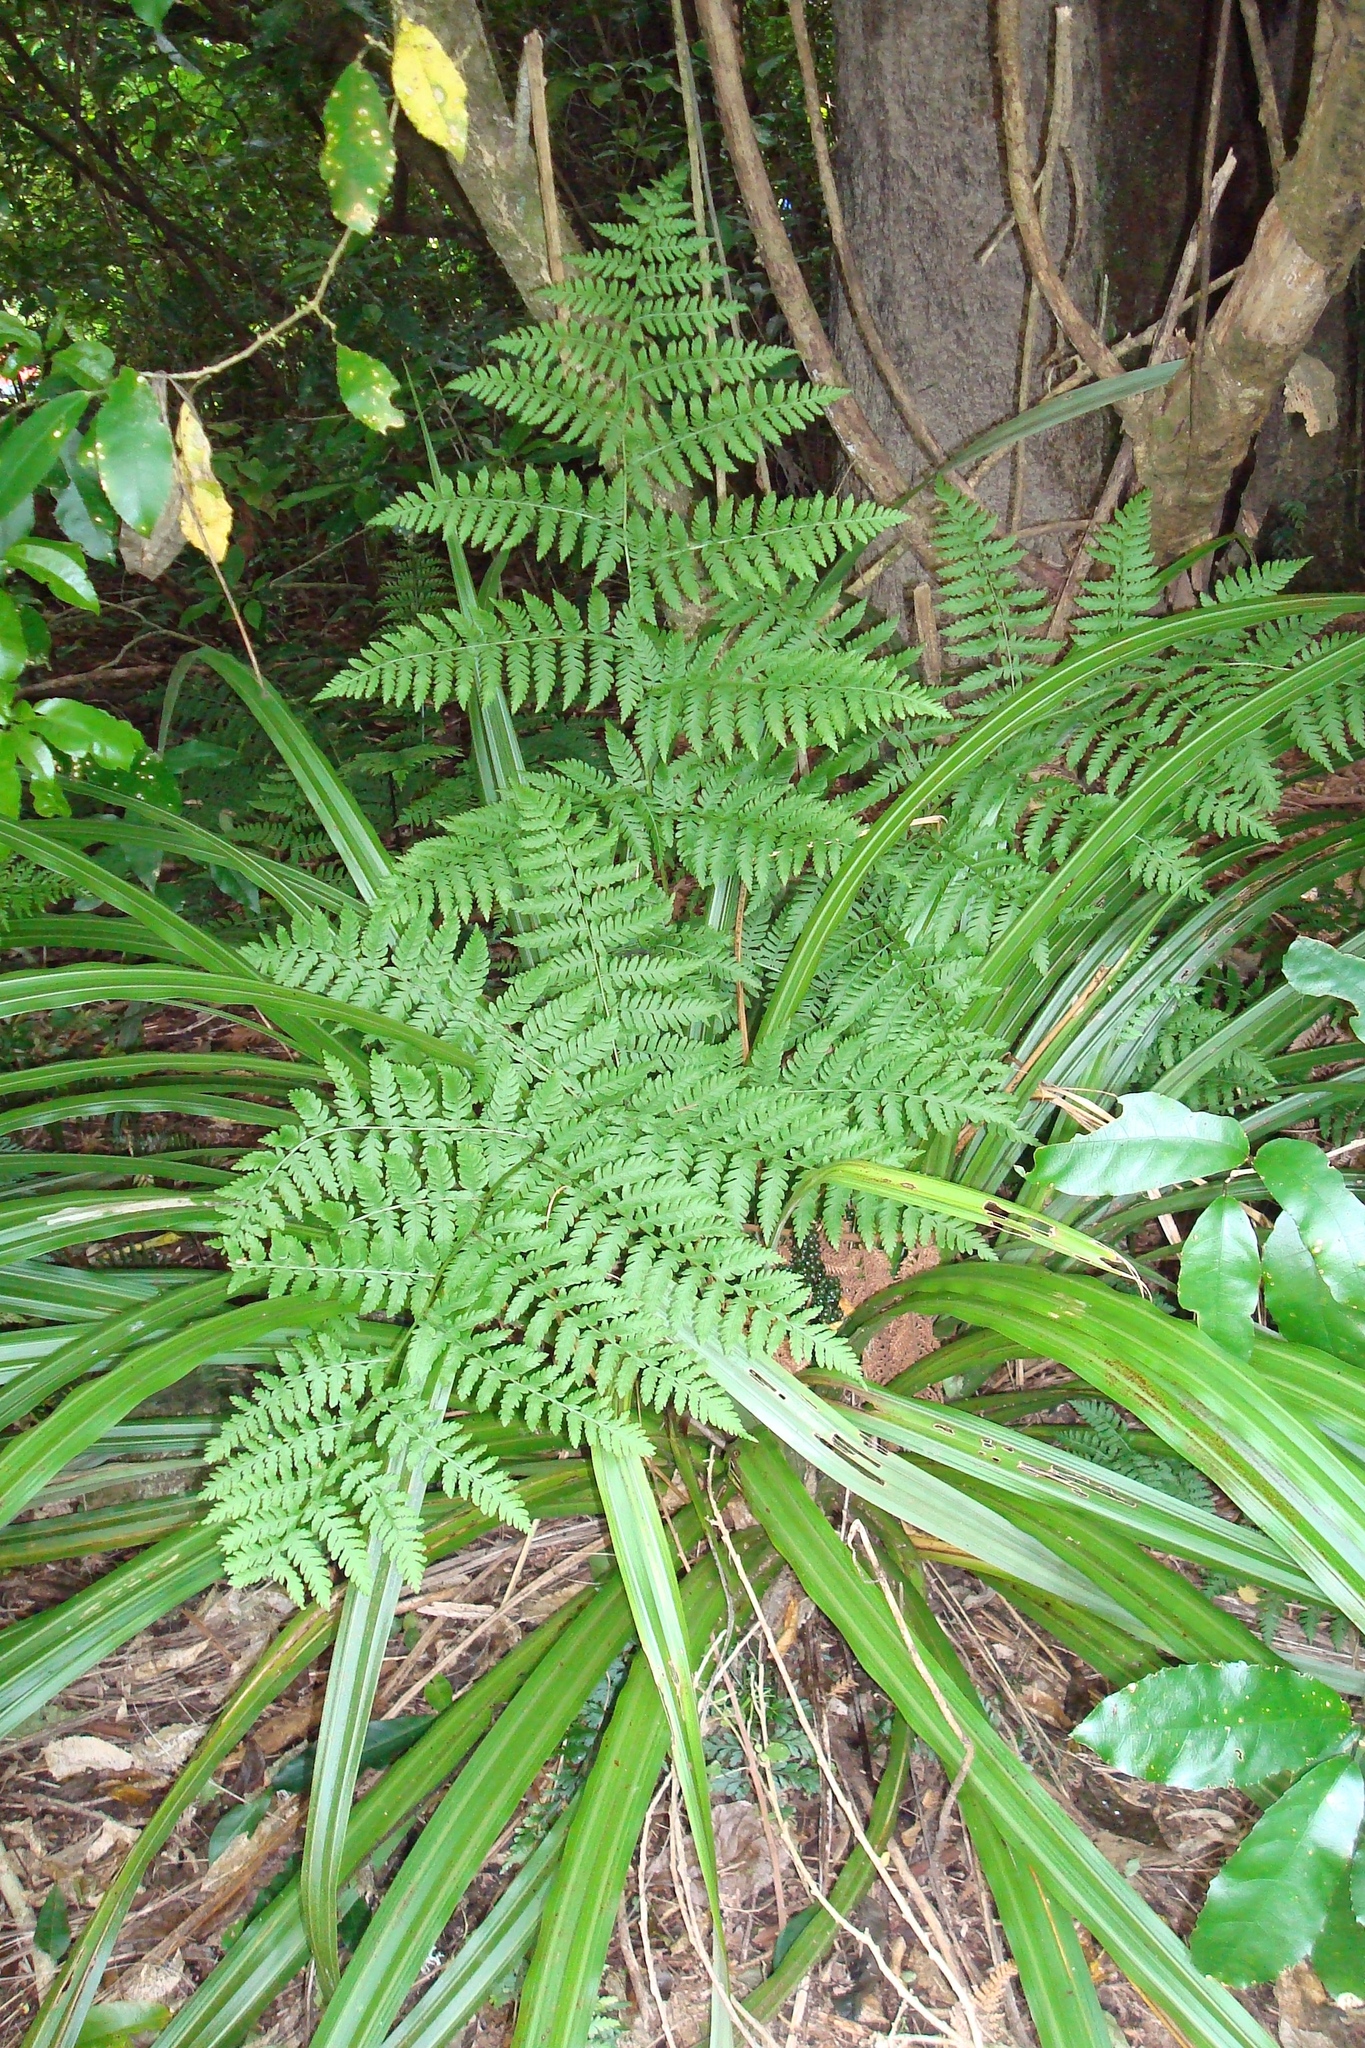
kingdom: Plantae
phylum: Tracheophyta
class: Polypodiopsida
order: Polypodiales
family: Athyriaceae
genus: Diplazium
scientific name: Diplazium australe
